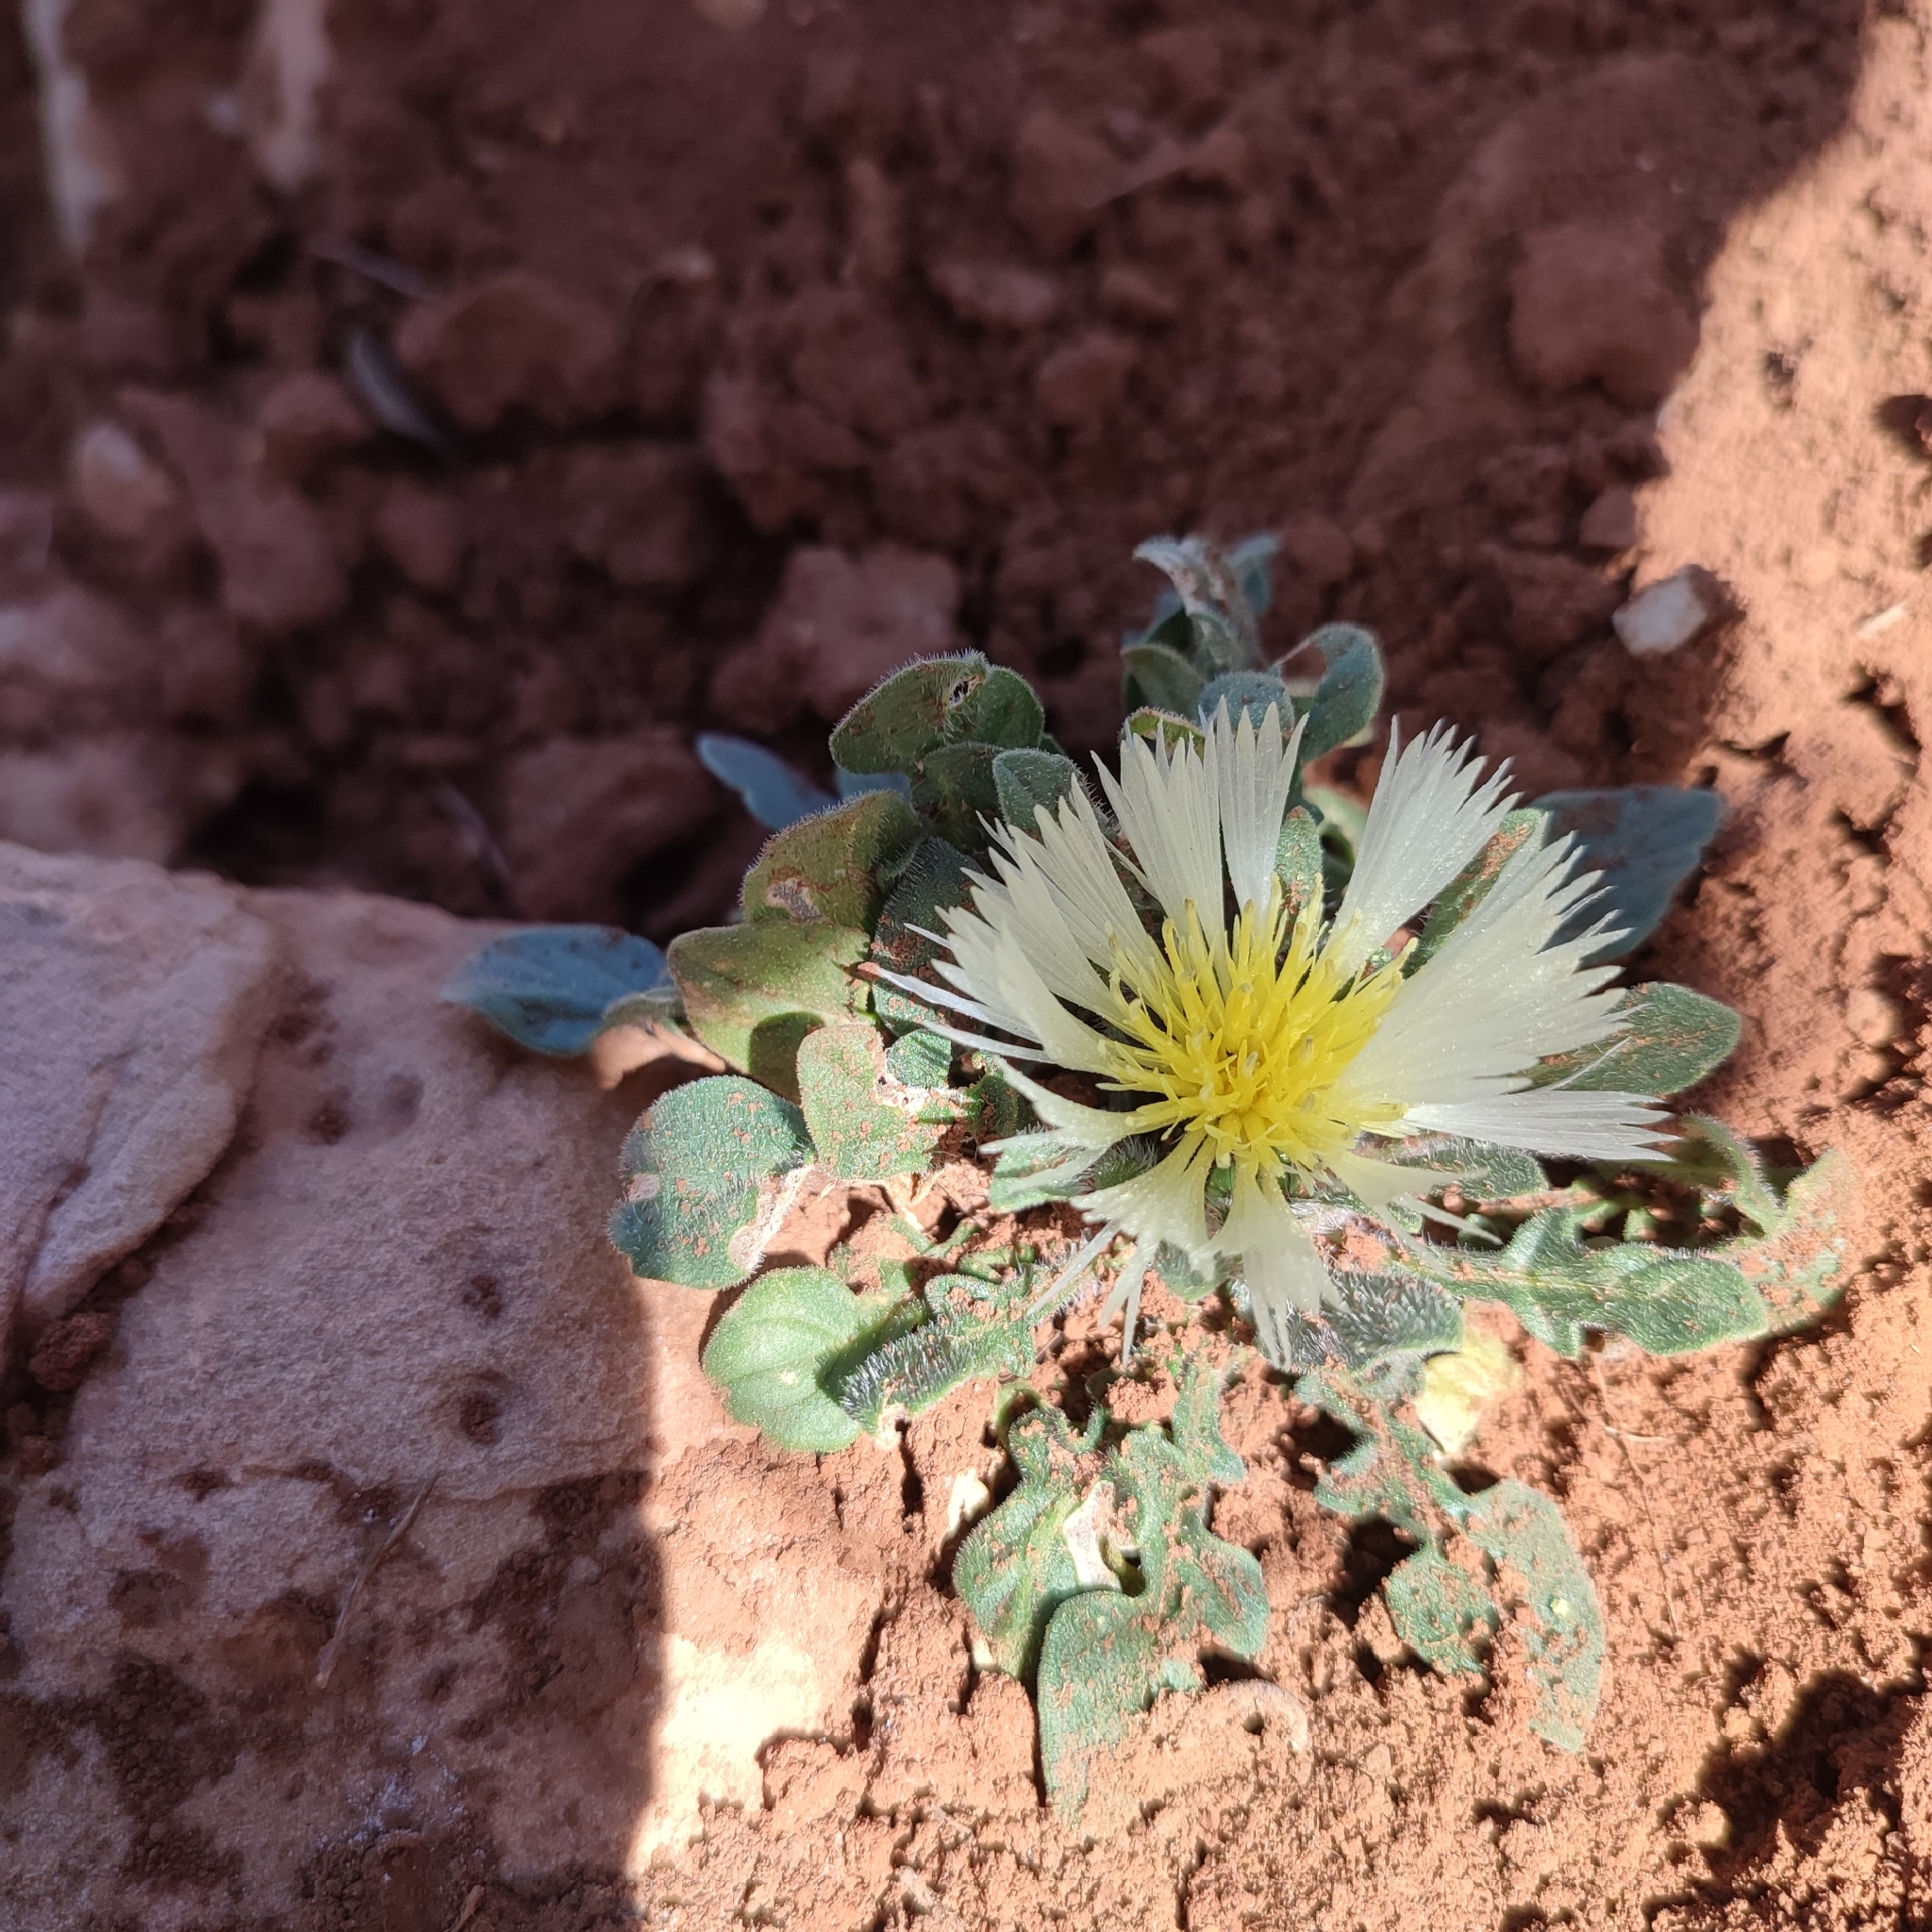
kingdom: Plantae
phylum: Tracheophyta
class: Magnoliopsida
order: Asterales
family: Asteraceae
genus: Centaurea
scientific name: Centaurea pullata
